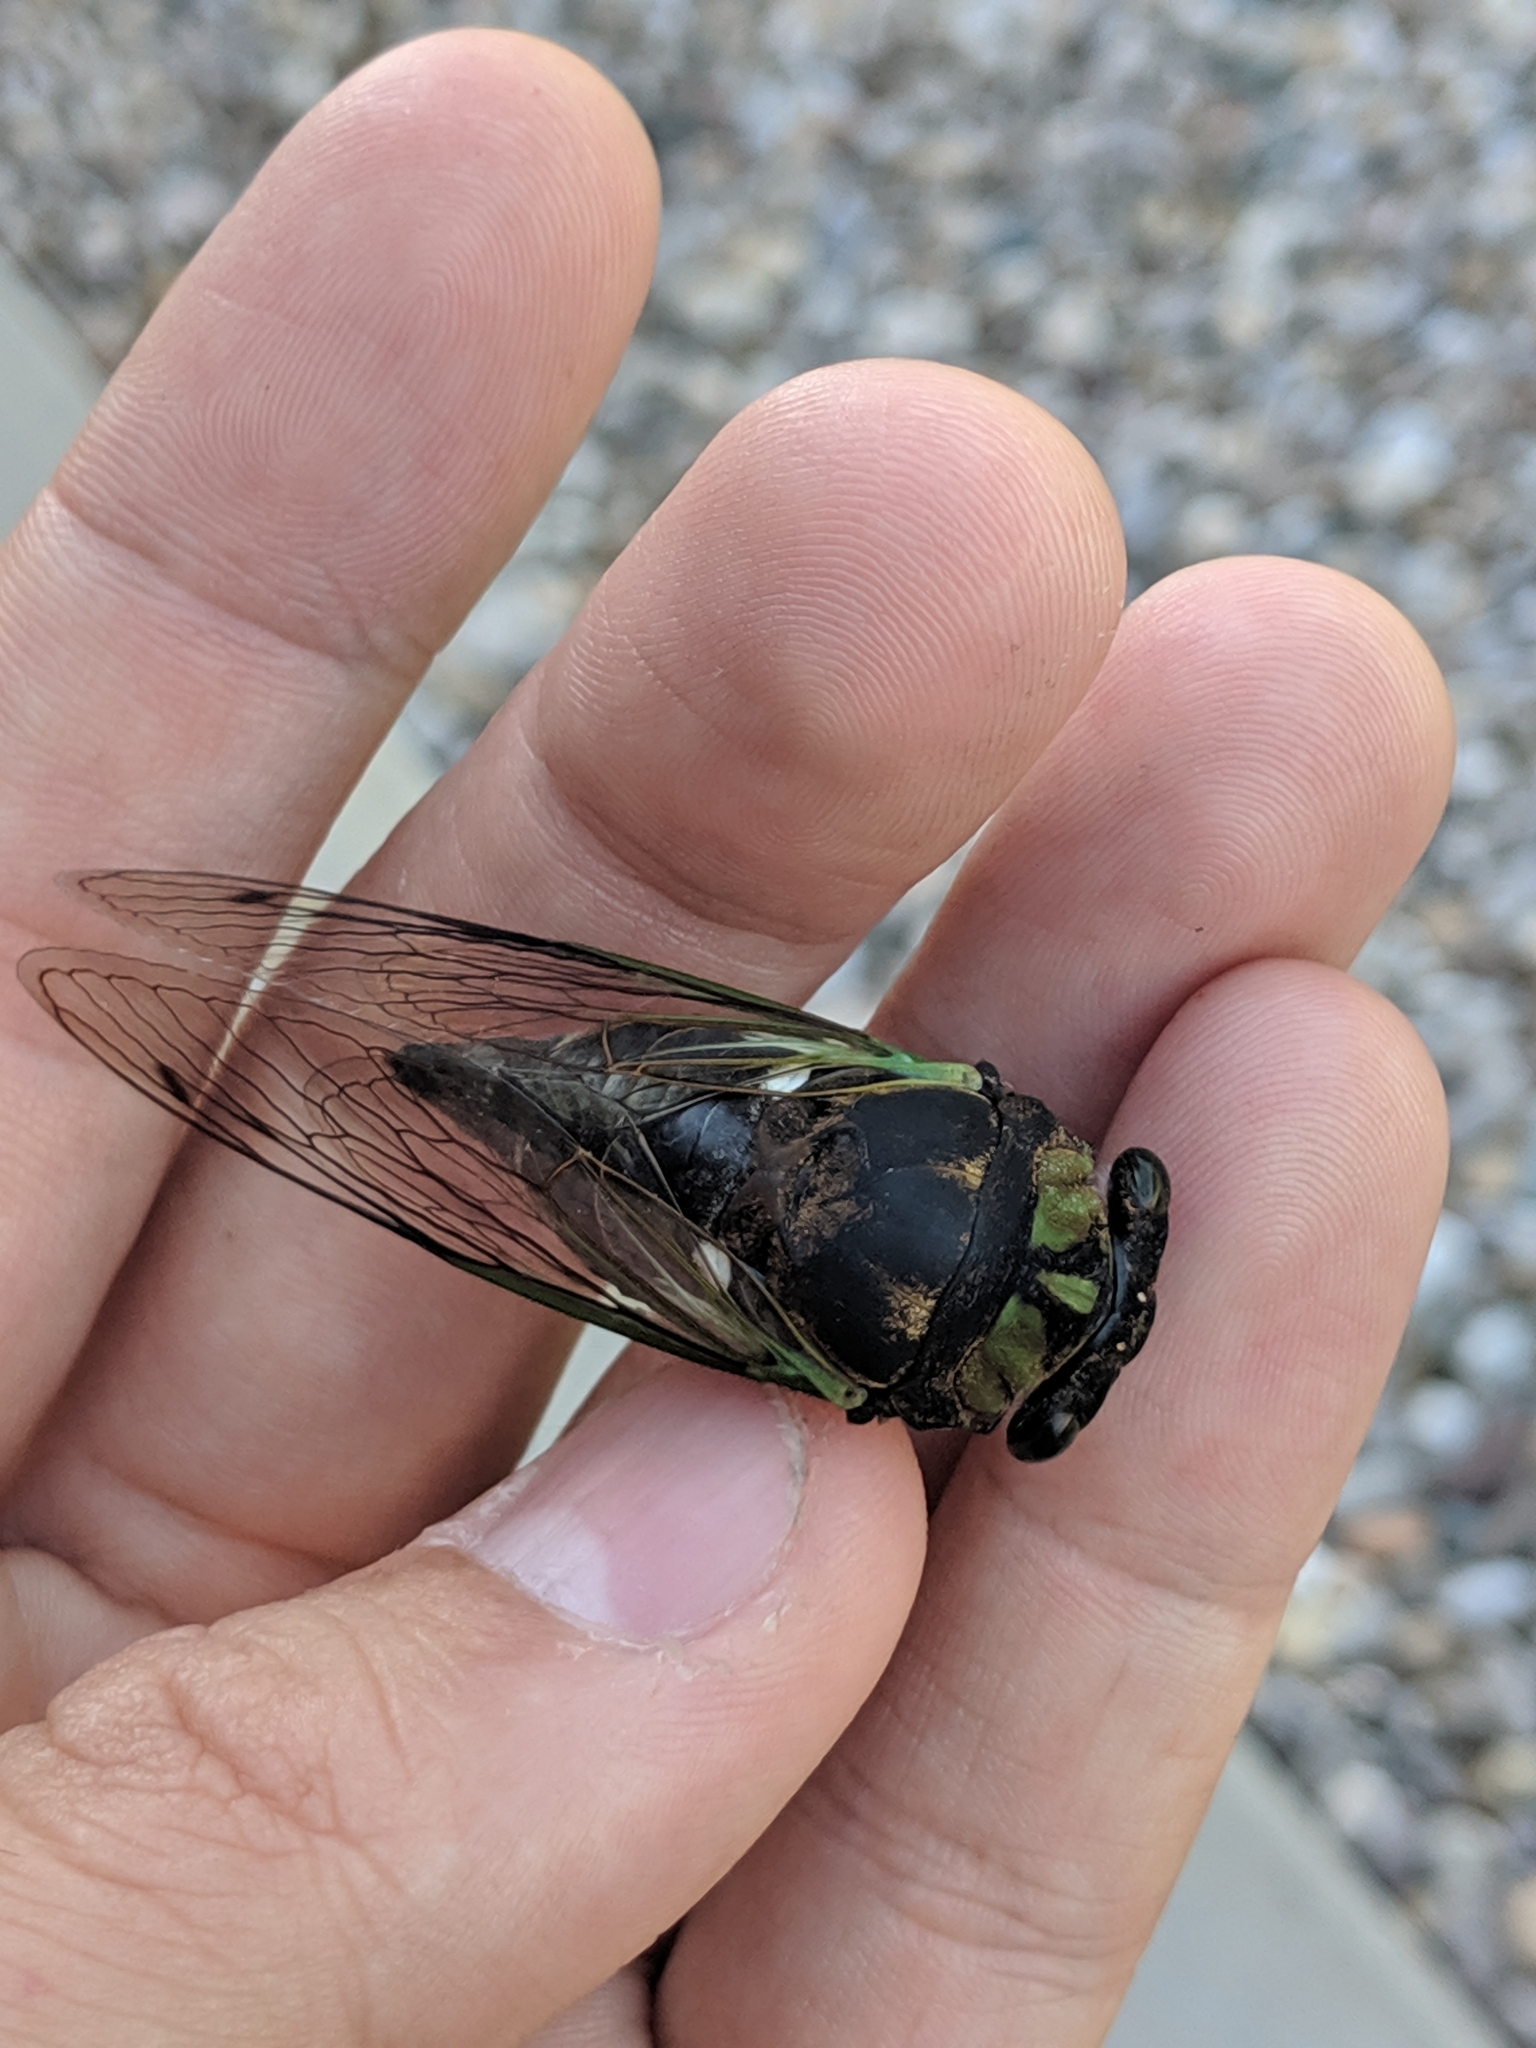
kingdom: Animalia
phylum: Arthropoda
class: Insecta
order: Hemiptera
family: Cicadidae
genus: Neotibicen
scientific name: Neotibicen tibicen
